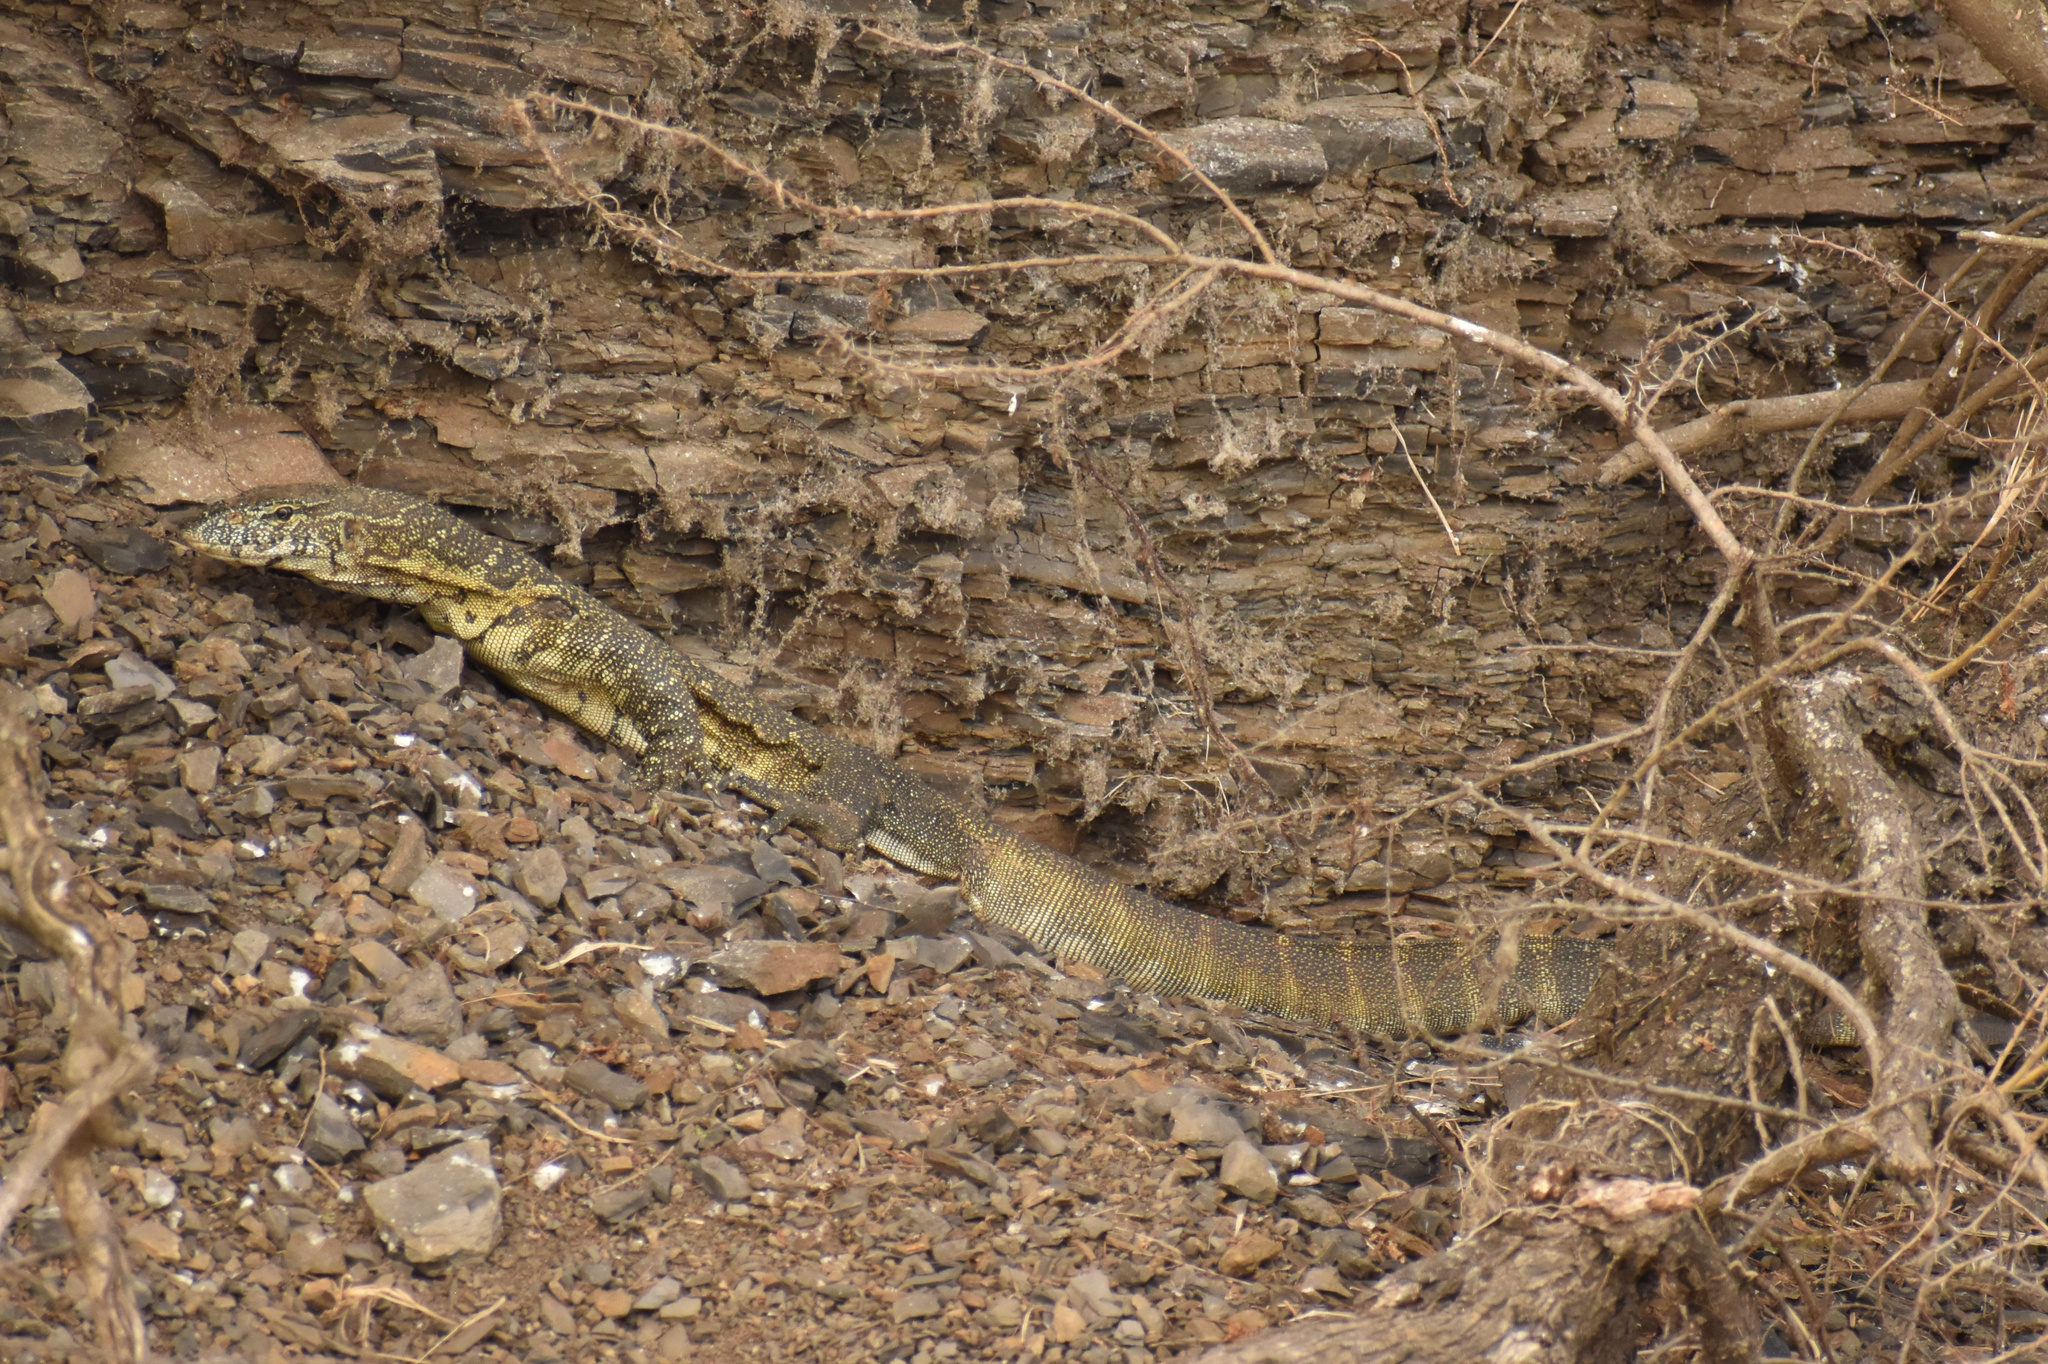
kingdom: Animalia
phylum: Chordata
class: Squamata
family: Varanidae
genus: Varanus
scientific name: Varanus niloticus
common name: Nile monitor
